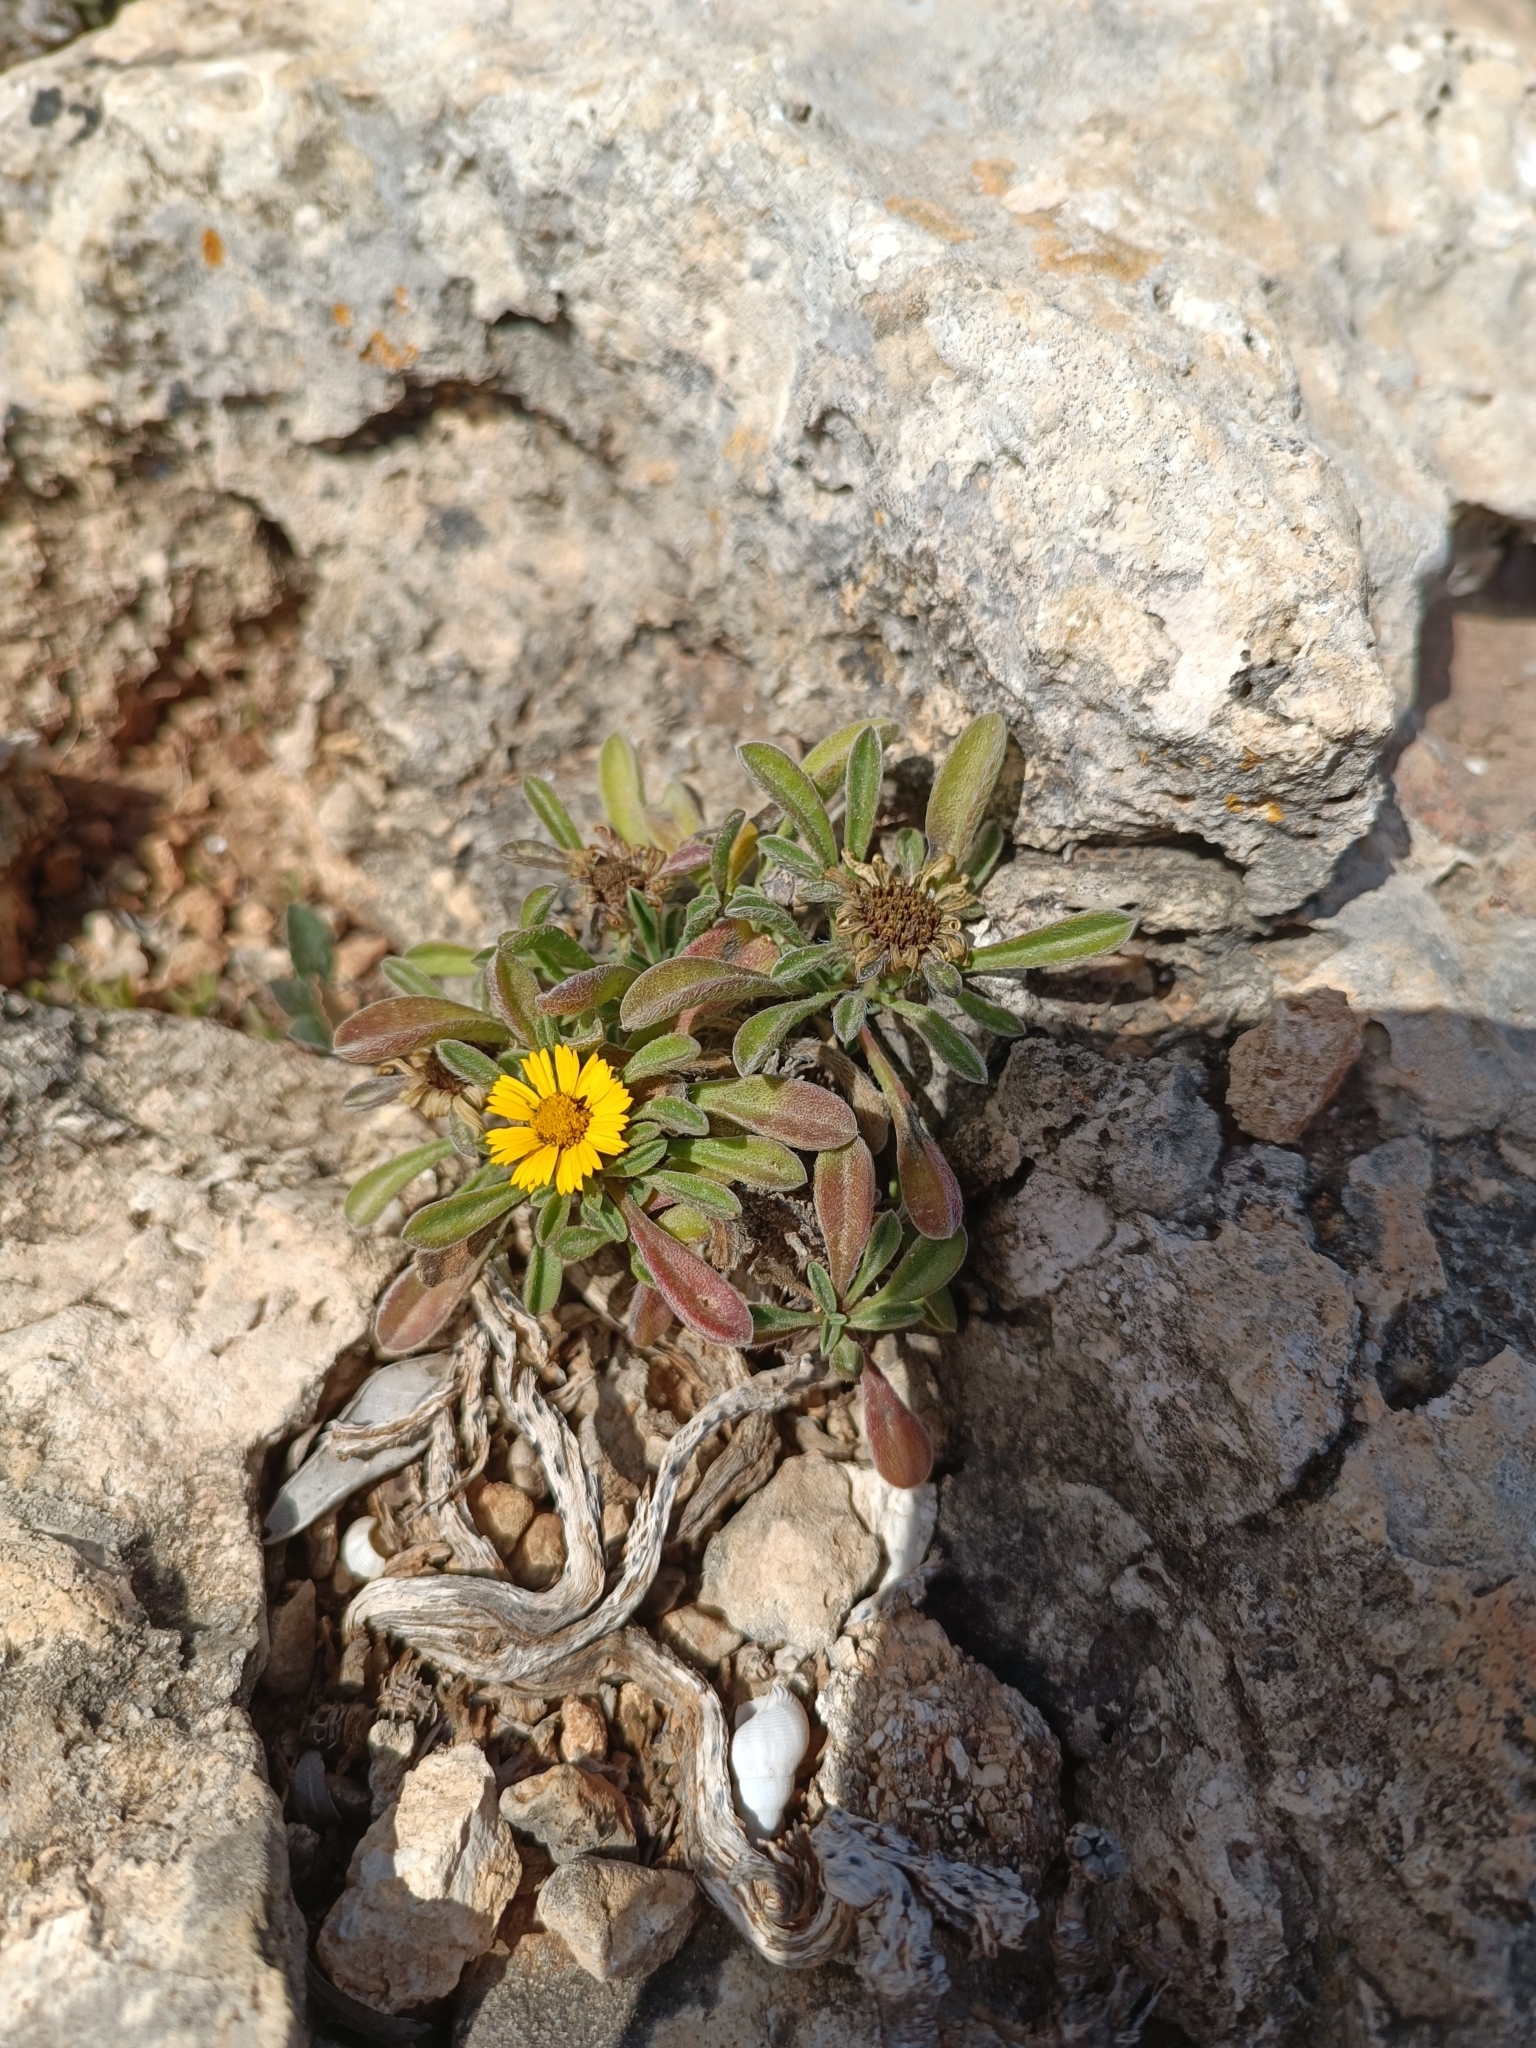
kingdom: Plantae
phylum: Tracheophyta
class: Magnoliopsida
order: Asterales
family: Asteraceae
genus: Pallenis
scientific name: Pallenis maritima
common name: Golden coin daisy
